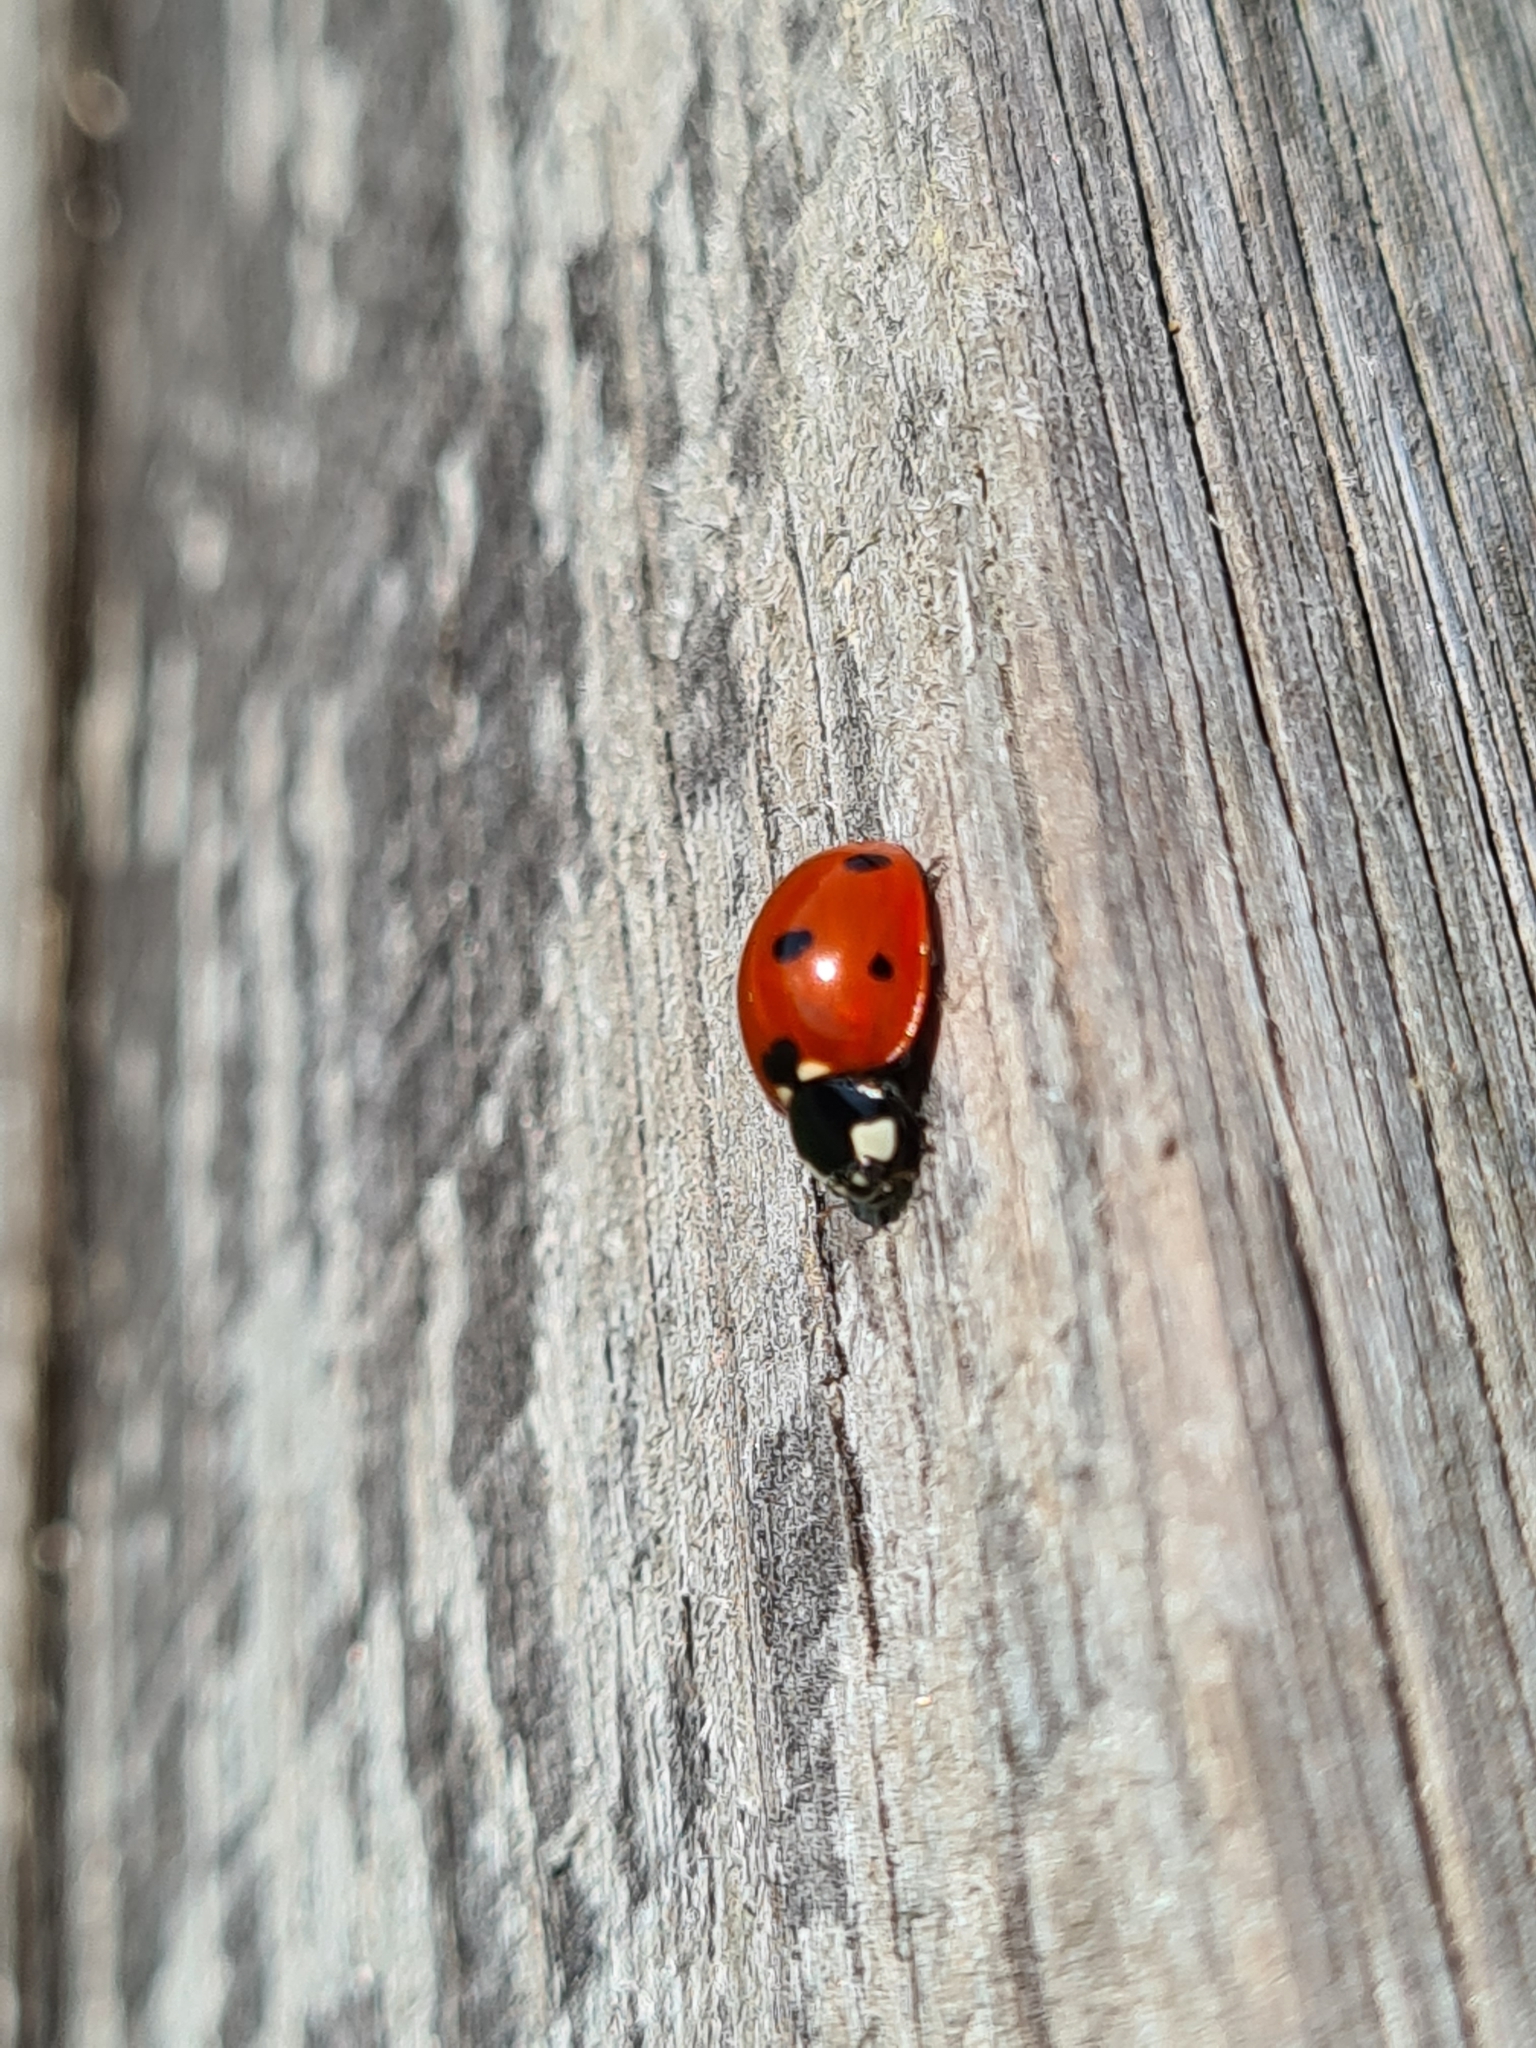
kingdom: Animalia
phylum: Arthropoda
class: Insecta
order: Coleoptera
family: Coccinellidae
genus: Coccinella
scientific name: Coccinella septempunctata
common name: Sevenspotted lady beetle
